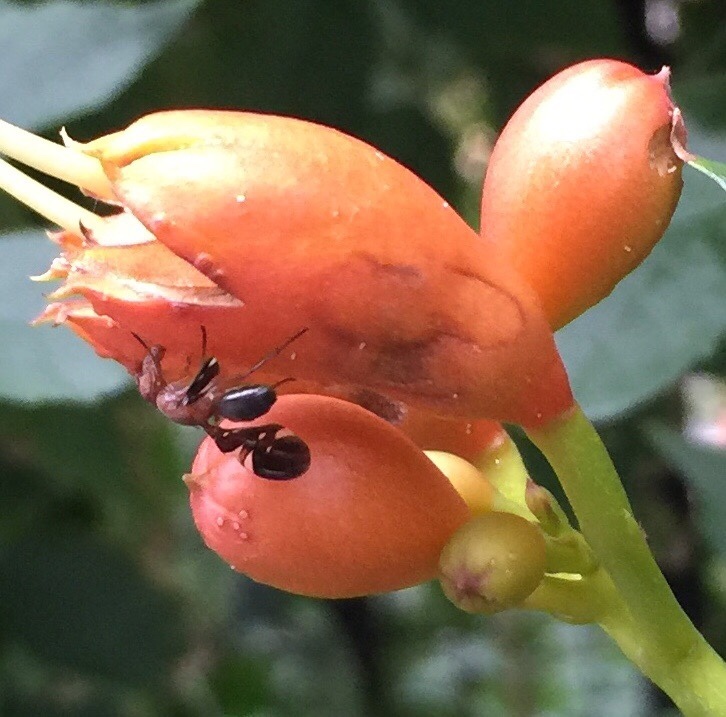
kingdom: Animalia
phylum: Arthropoda
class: Insecta
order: Diptera
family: Ulidiidae
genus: Delphinia
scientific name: Delphinia picta
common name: Common picture-winged fly
